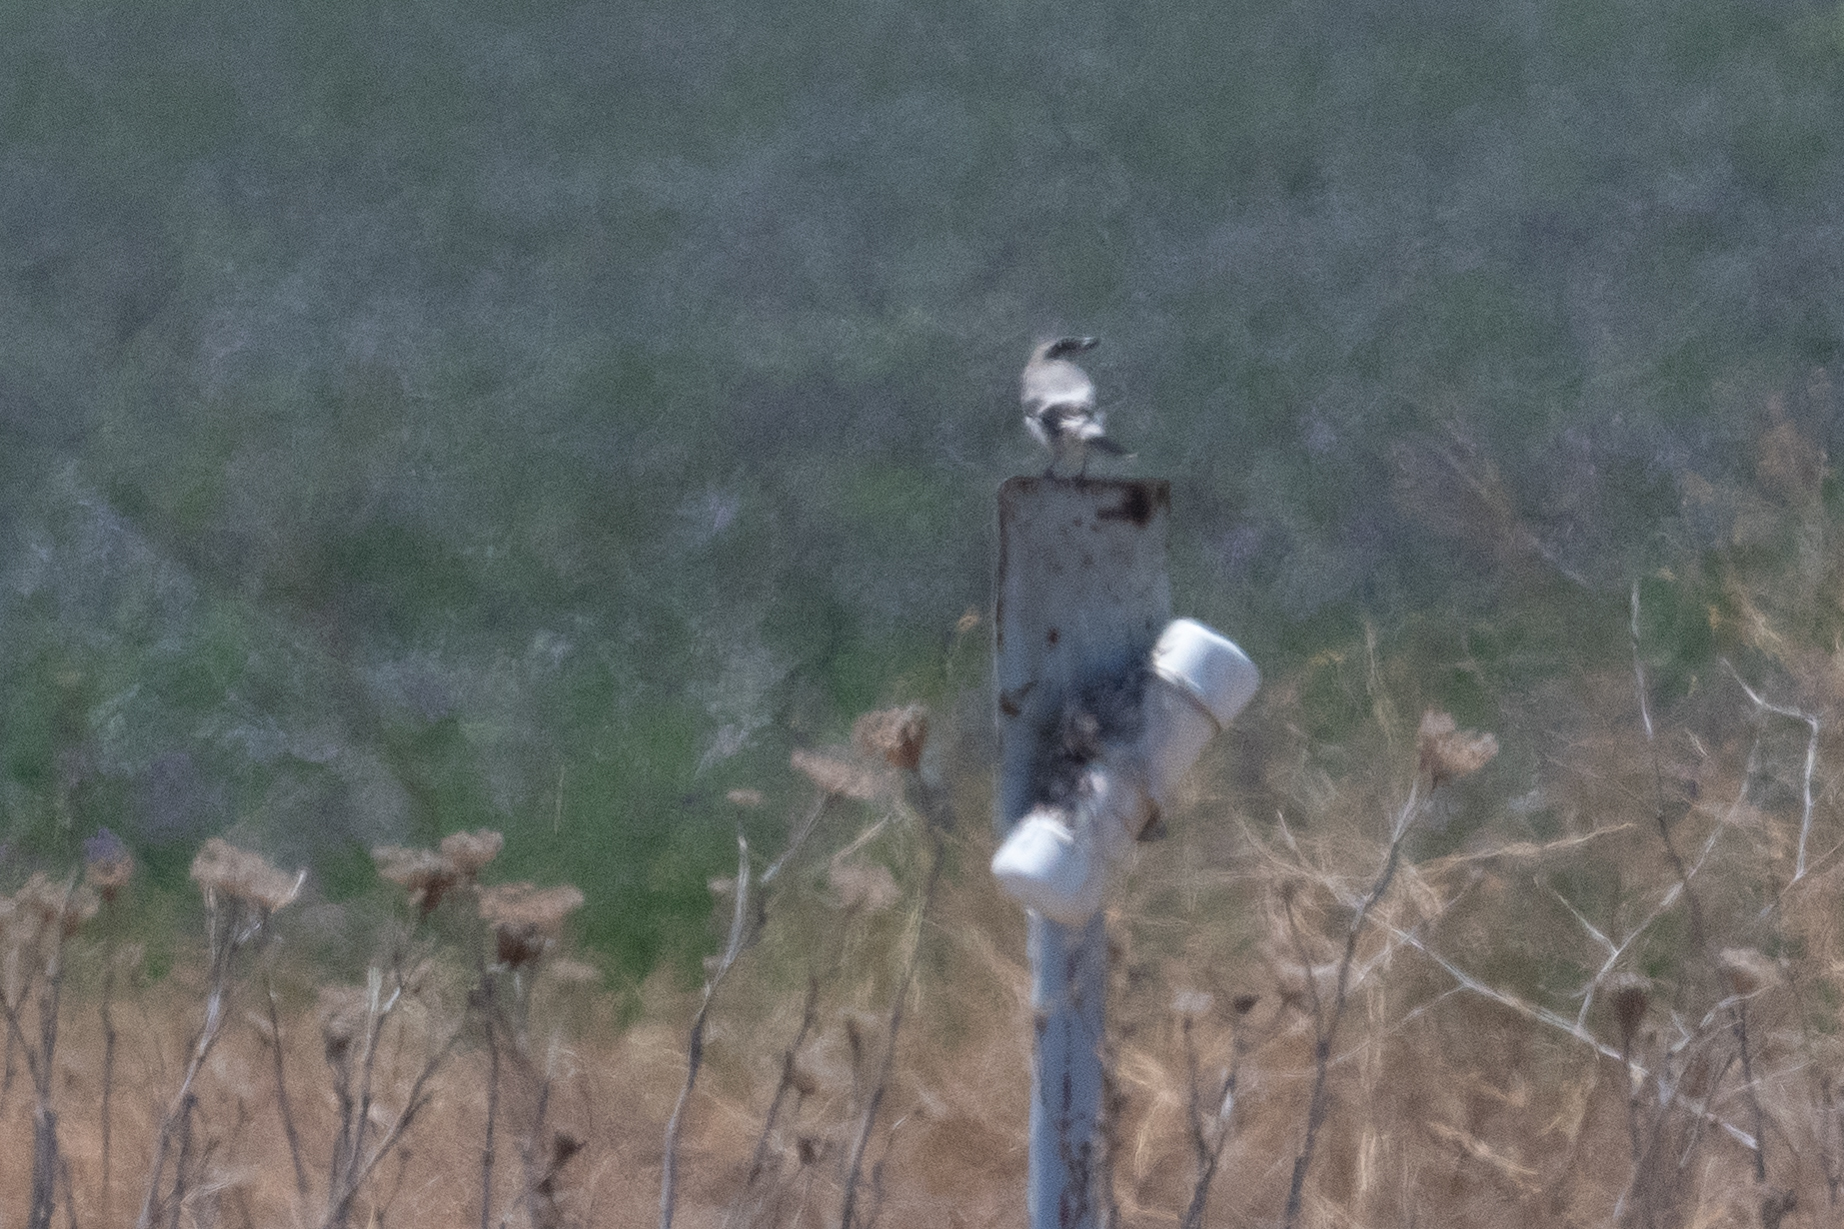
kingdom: Animalia
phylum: Chordata
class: Aves
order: Passeriformes
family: Laniidae
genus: Lanius
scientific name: Lanius ludovicianus
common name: Loggerhead shrike
